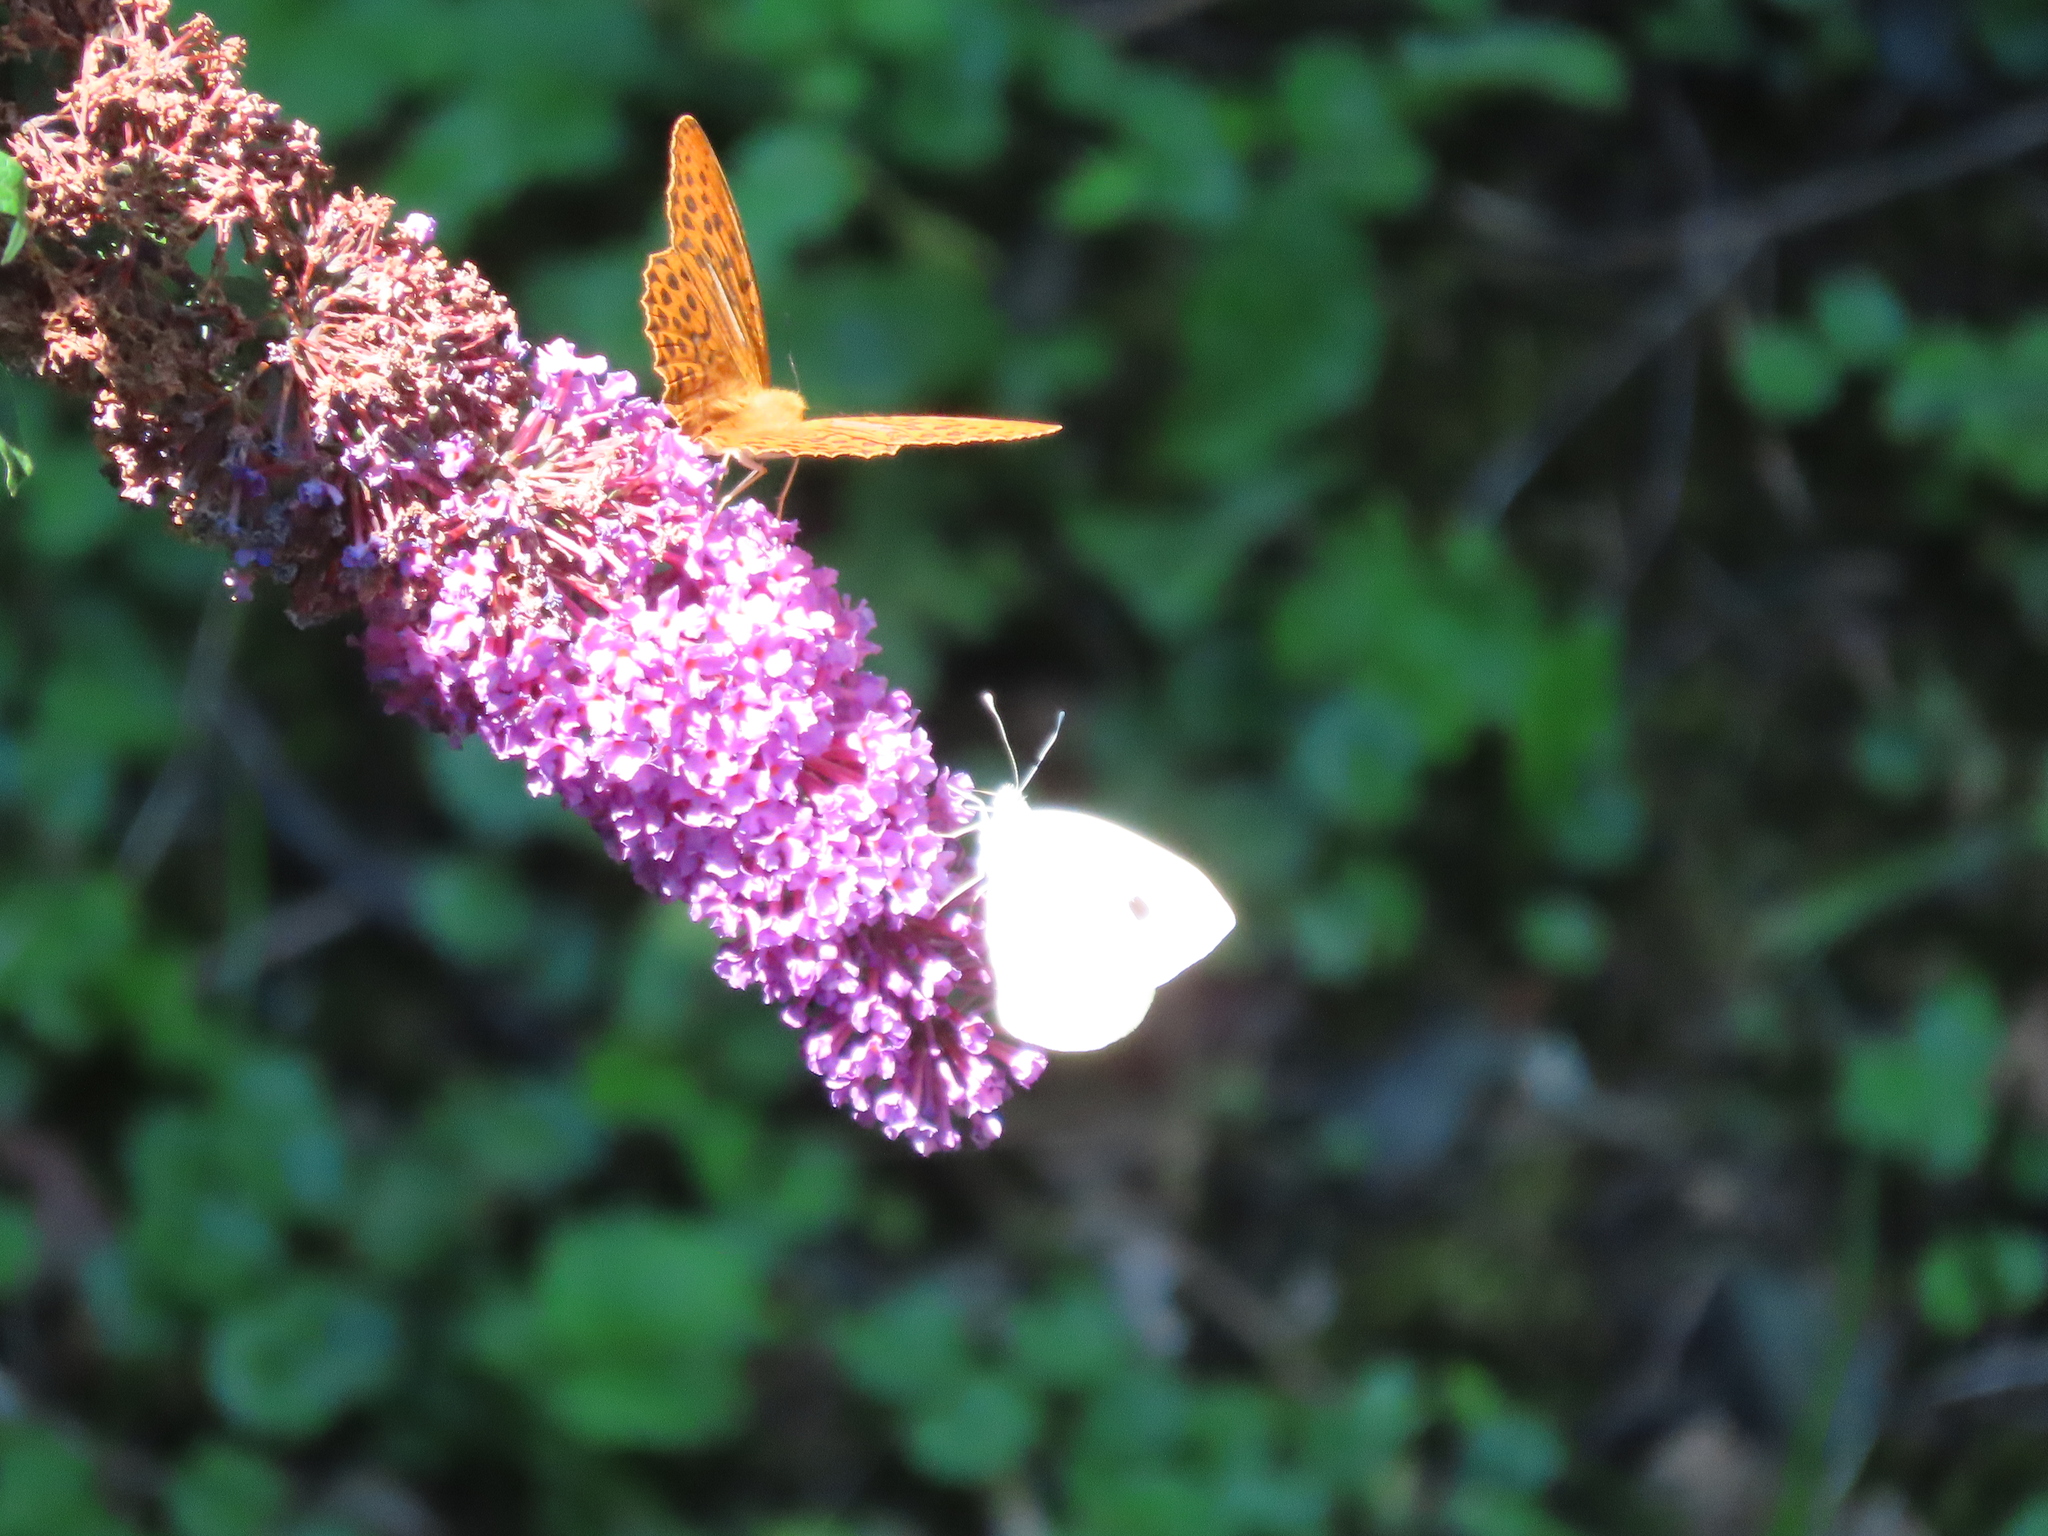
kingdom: Animalia
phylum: Arthropoda
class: Insecta
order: Lepidoptera
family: Nymphalidae
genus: Argynnis
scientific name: Argynnis paphia
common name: Silver-washed fritillary
